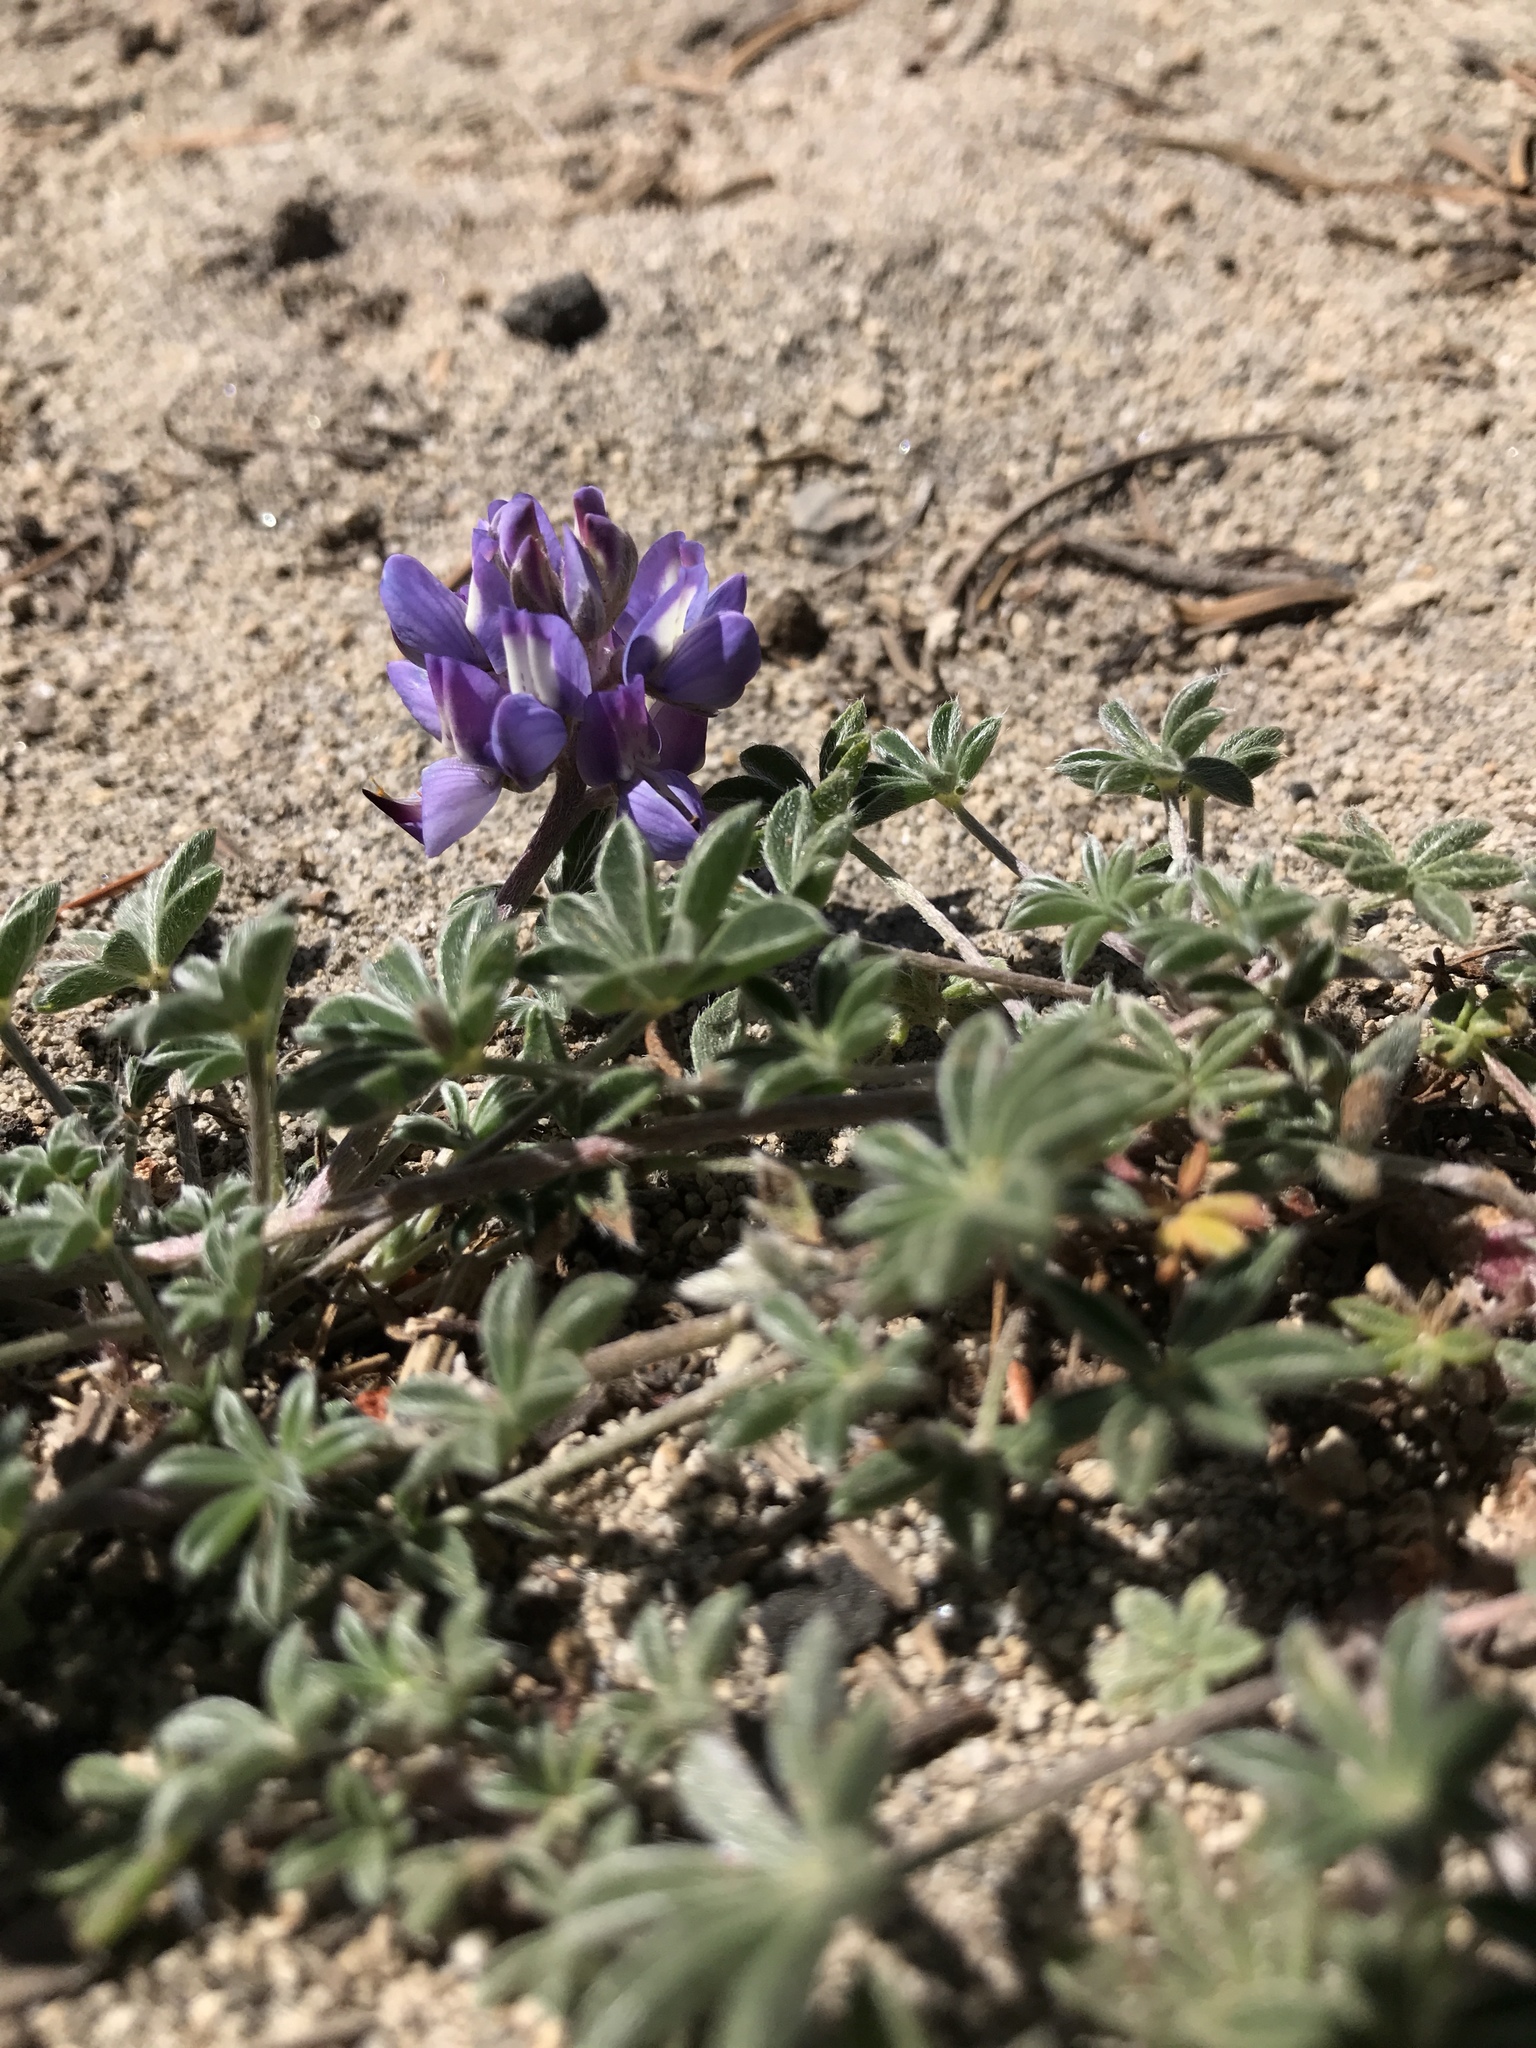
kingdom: Plantae
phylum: Tracheophyta
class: Magnoliopsida
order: Fabales
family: Fabaceae
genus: Lupinus
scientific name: Lupinus lepidus
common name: Prairie lupine
